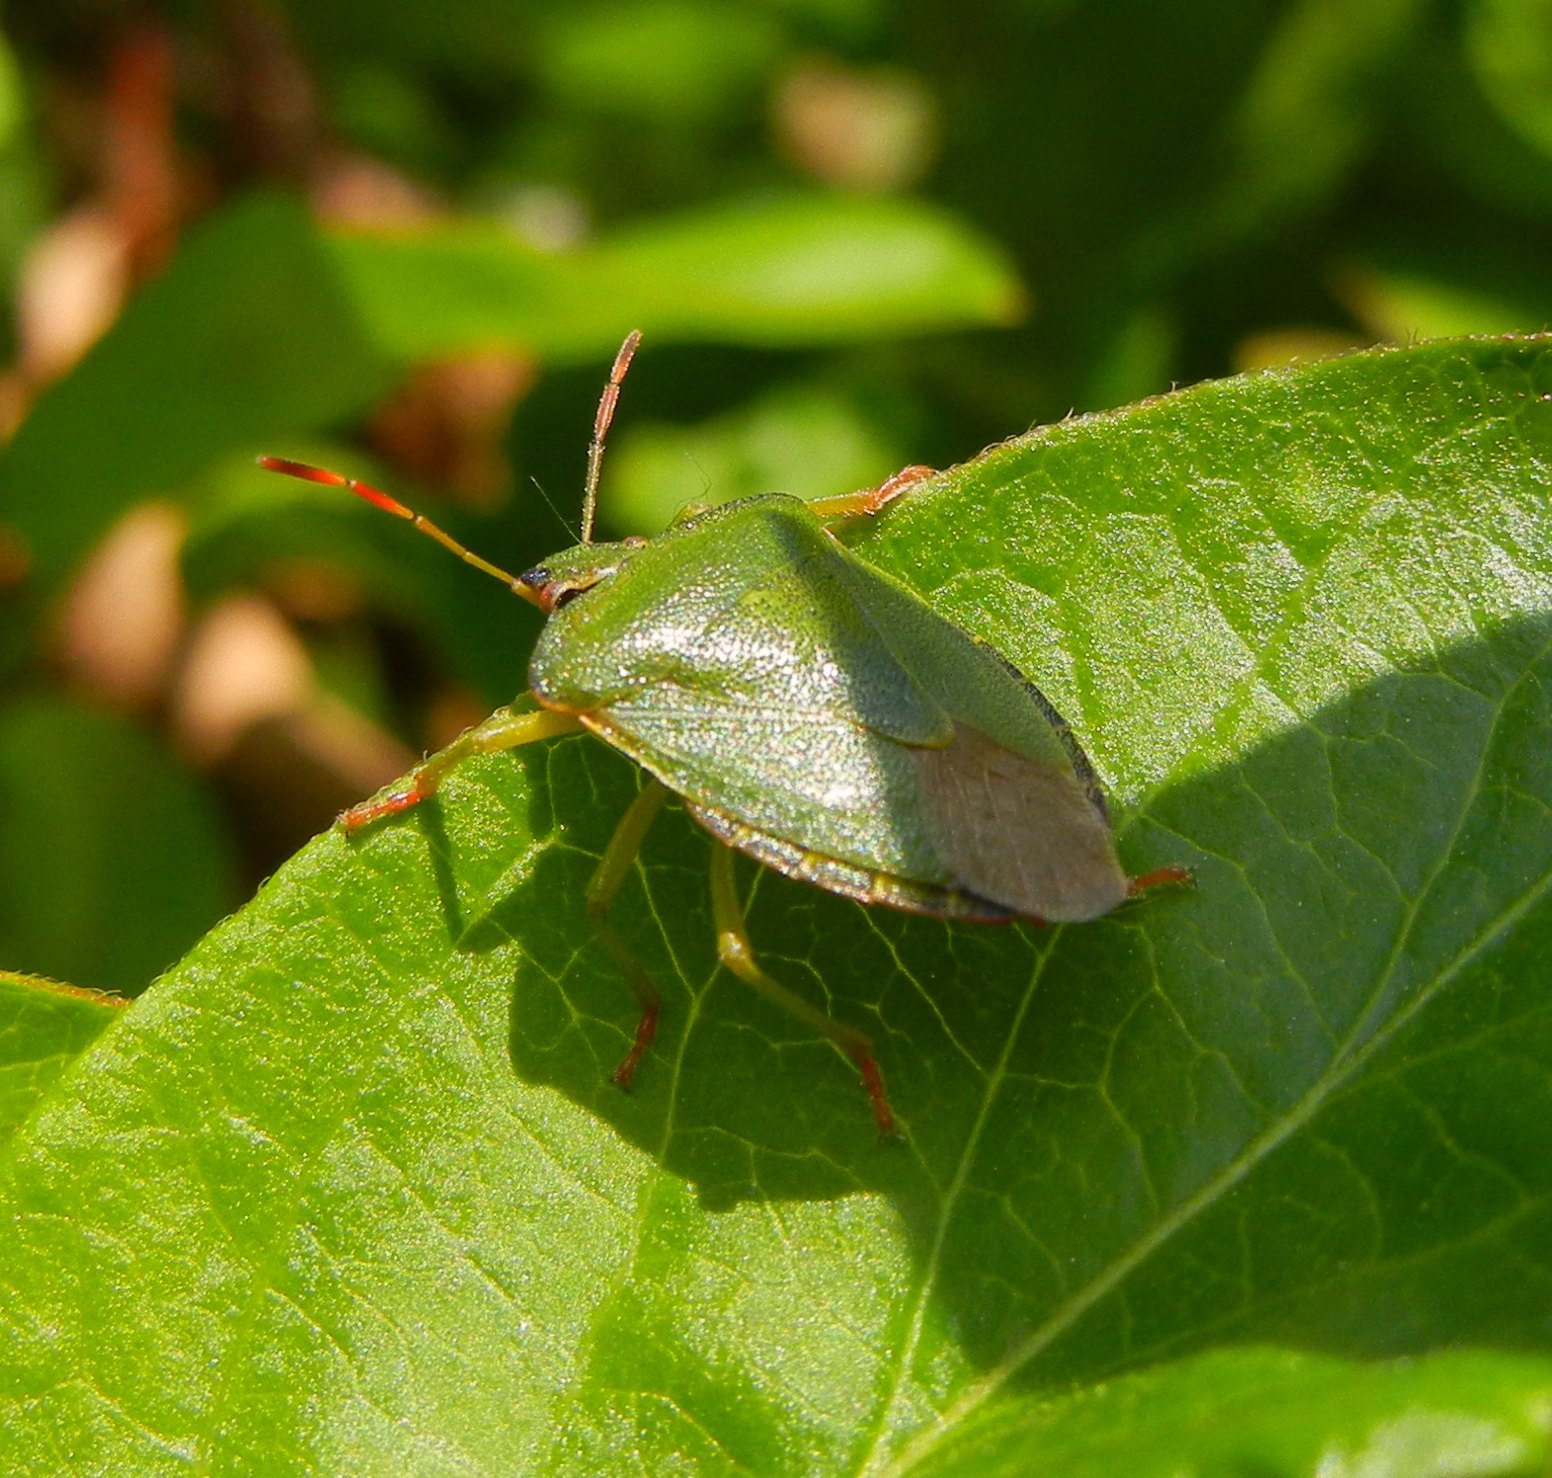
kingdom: Animalia
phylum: Arthropoda
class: Insecta
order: Hemiptera
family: Pentatomidae
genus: Palomena
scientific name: Palomena prasina
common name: Green shieldbug
